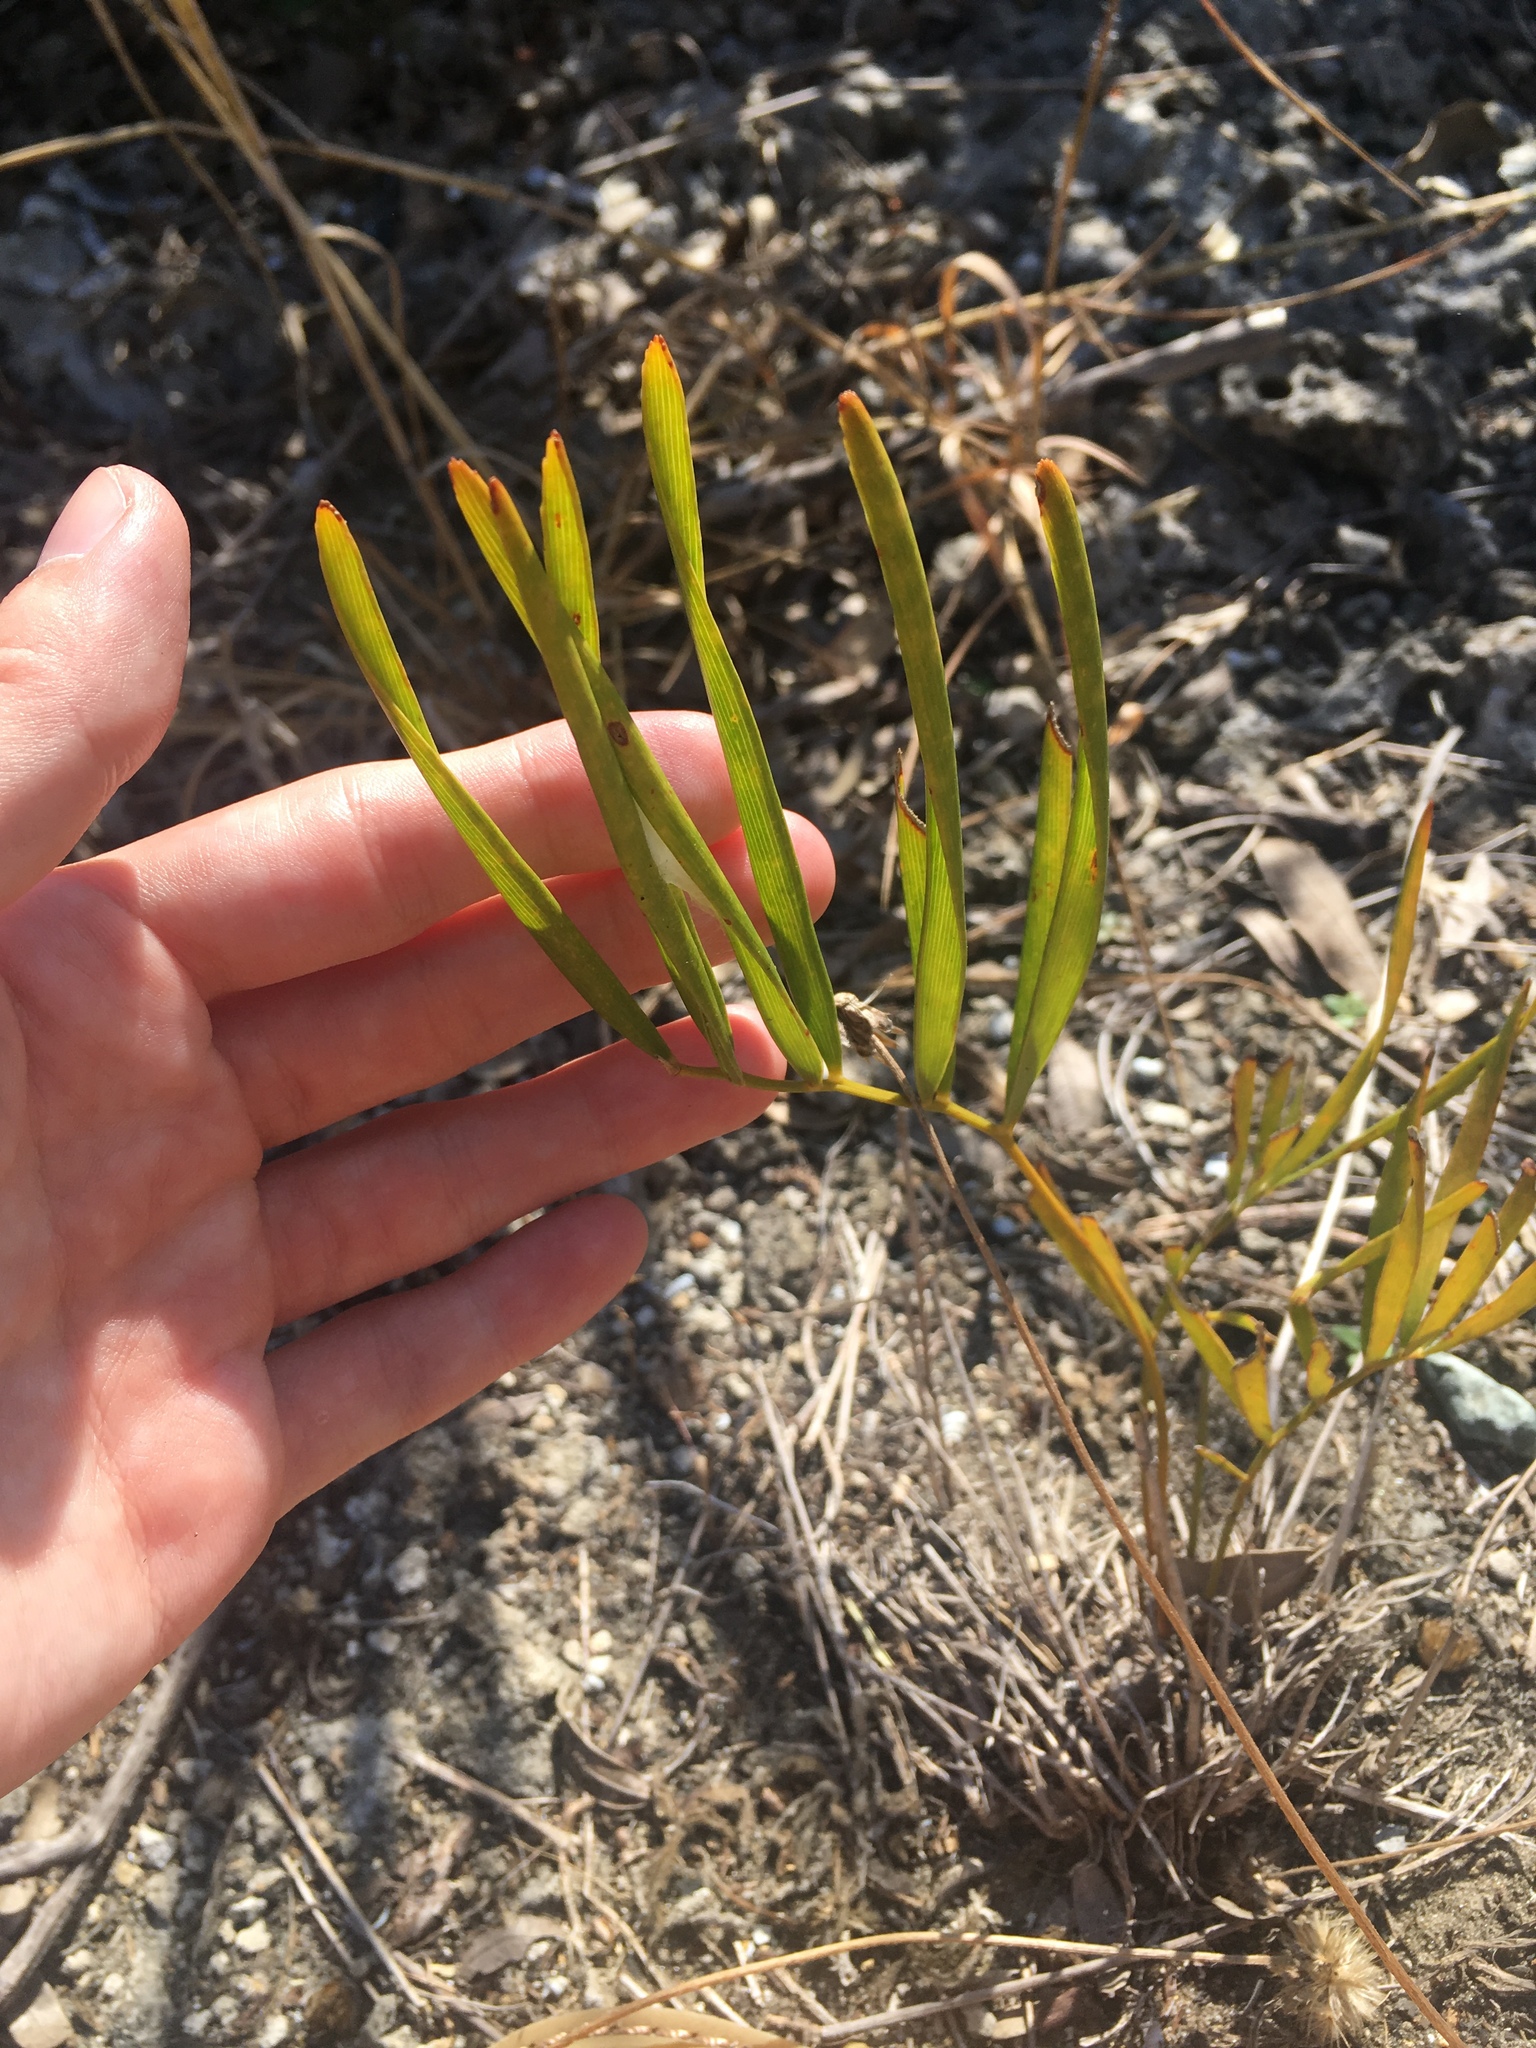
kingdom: Plantae
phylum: Tracheophyta
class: Cycadopsida
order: Cycadales
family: Zamiaceae
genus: Zamia
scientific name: Zamia integrifolia
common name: Florida arrowroot
